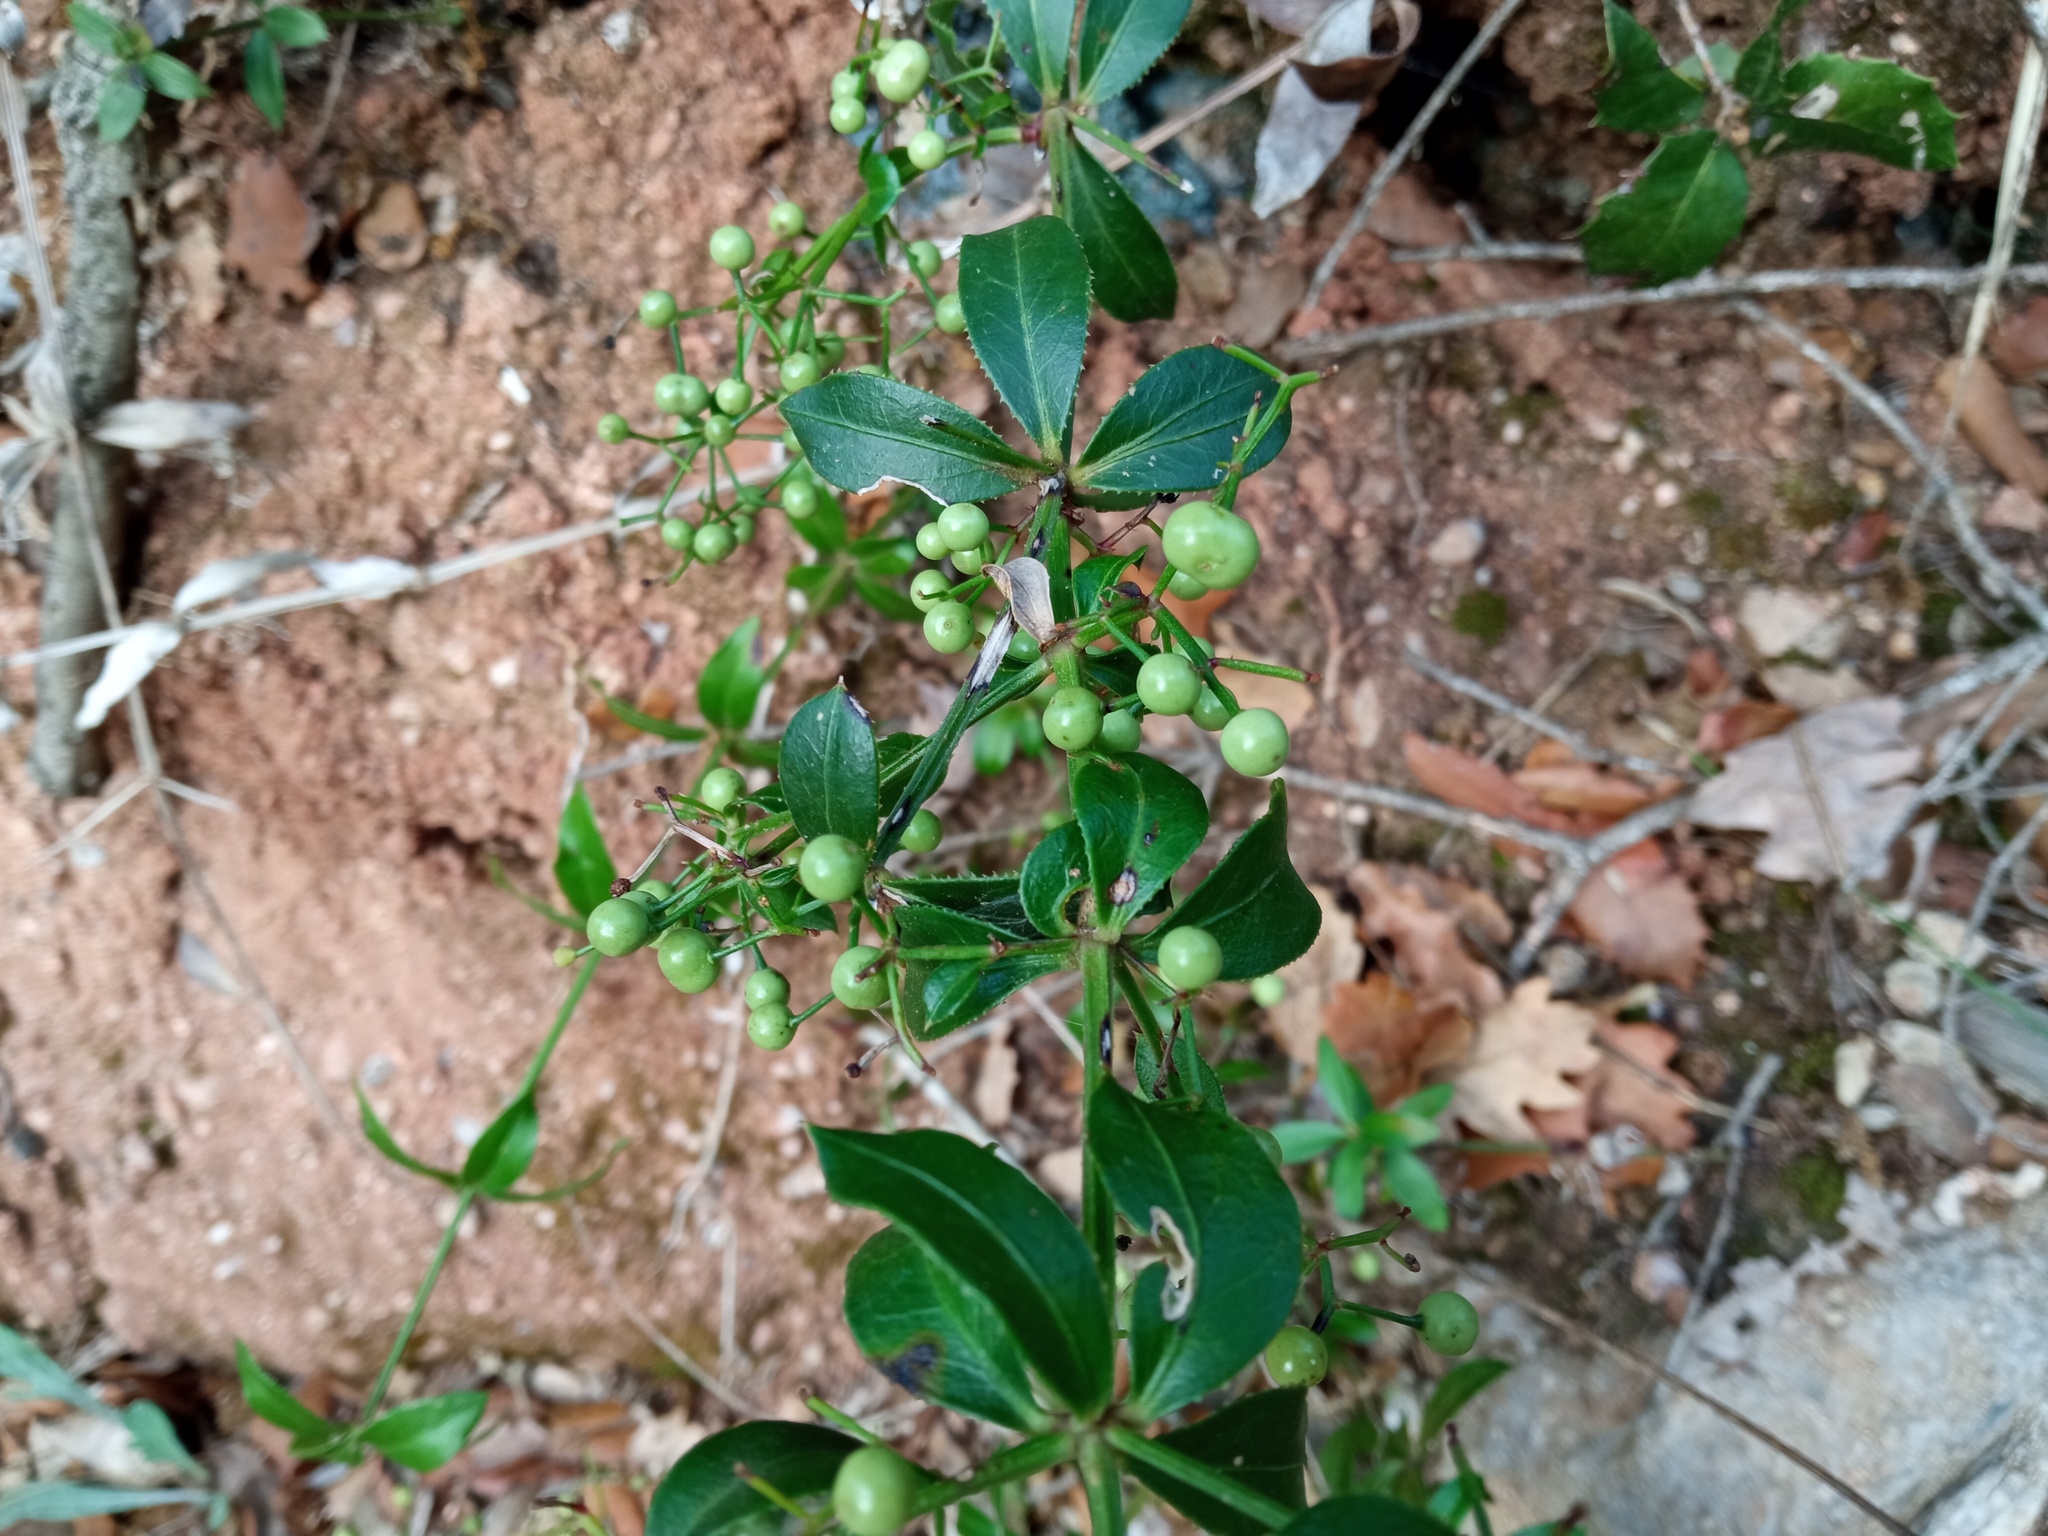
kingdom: Plantae
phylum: Tracheophyta
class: Magnoliopsida
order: Gentianales
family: Rubiaceae
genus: Rubia
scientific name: Rubia peregrina
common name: Wild madder
